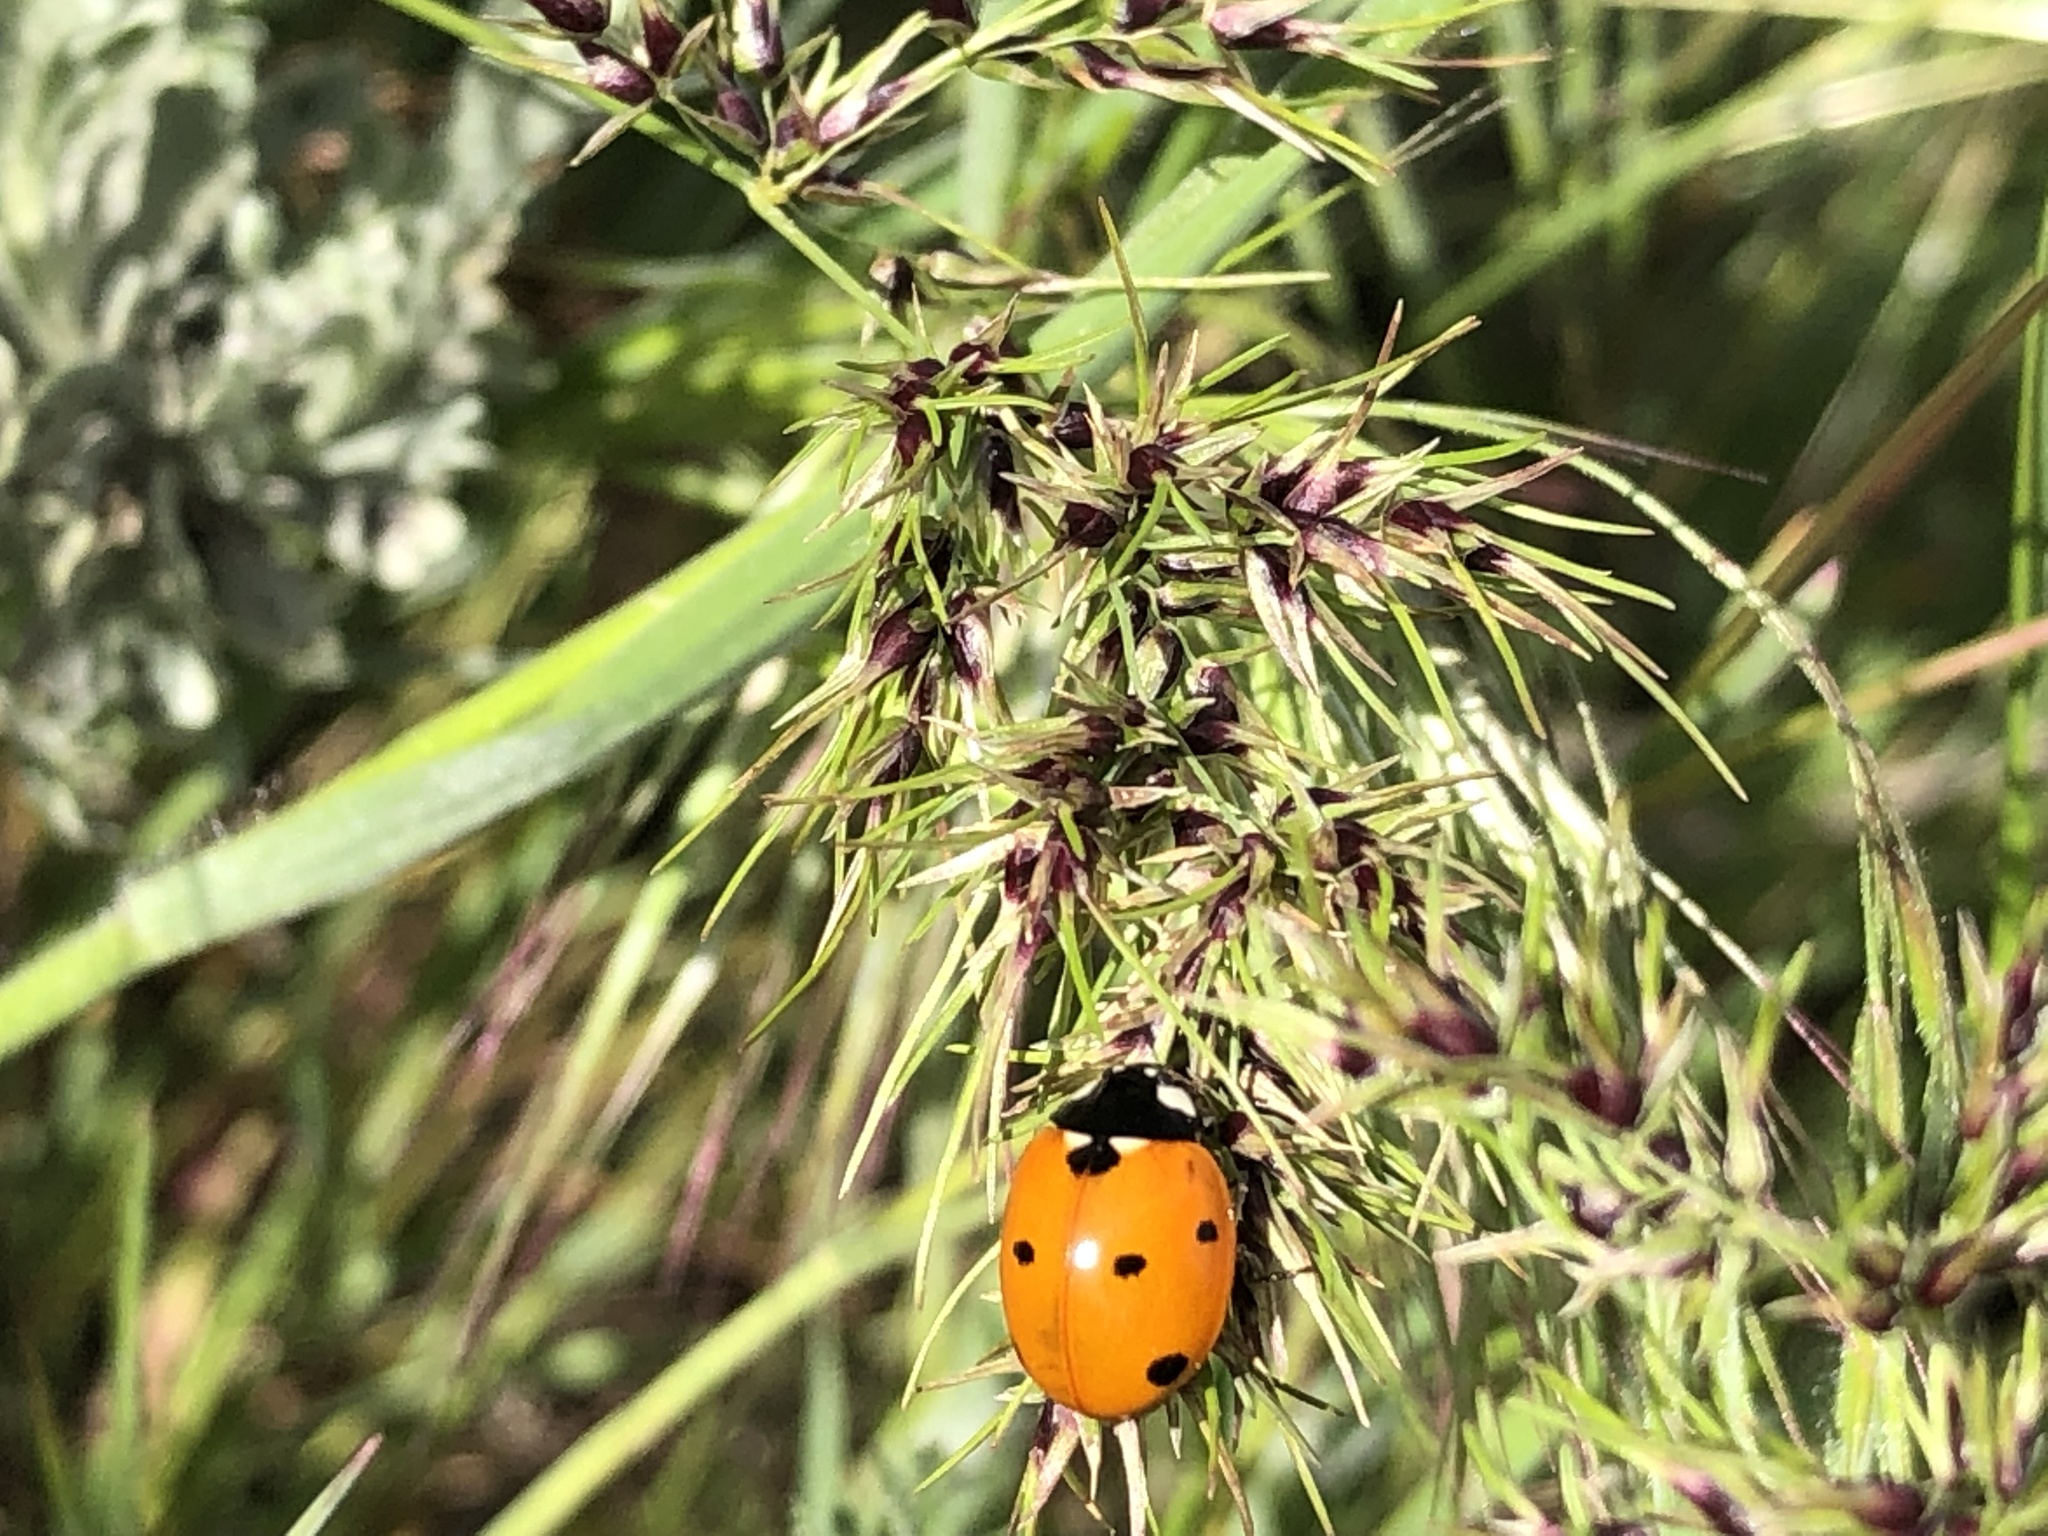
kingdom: Animalia
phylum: Arthropoda
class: Insecta
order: Coleoptera
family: Coccinellidae
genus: Coccinella
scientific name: Coccinella septempunctata
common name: Sevenspotted lady beetle
